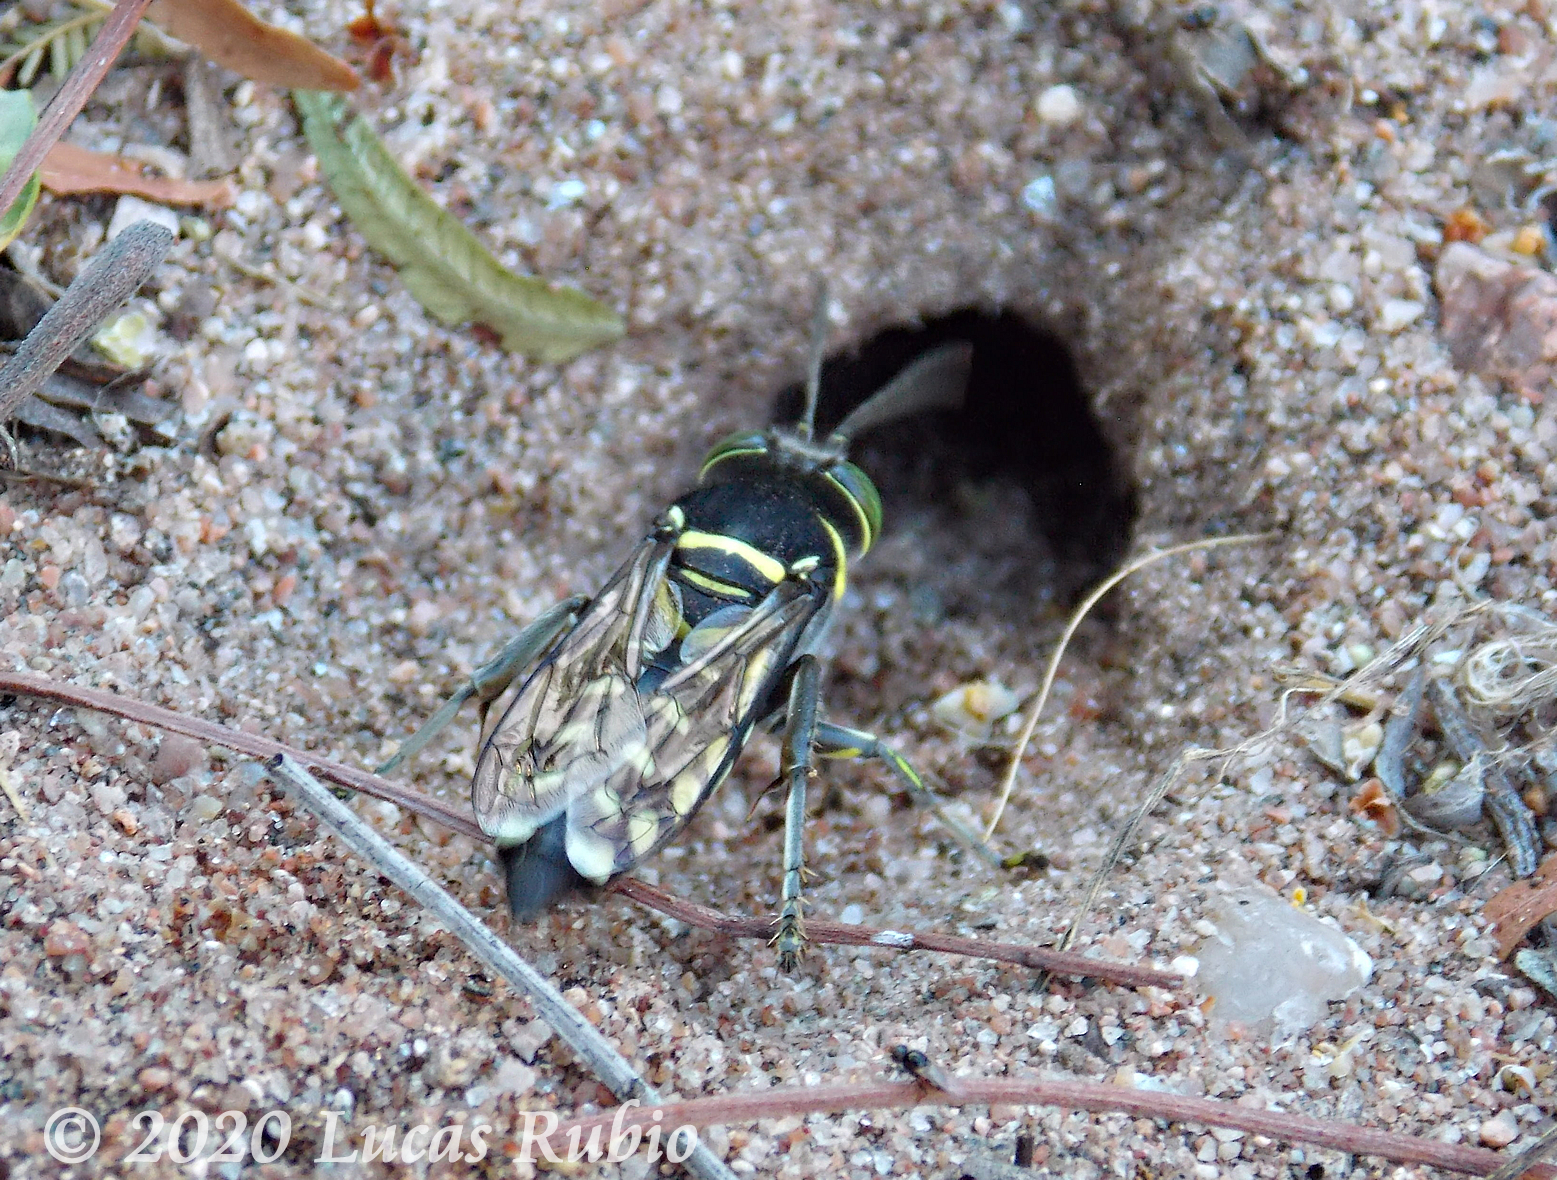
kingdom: Animalia
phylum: Arthropoda
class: Insecta
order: Hymenoptera
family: Crabronidae
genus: Stictia
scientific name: Stictia maccus
